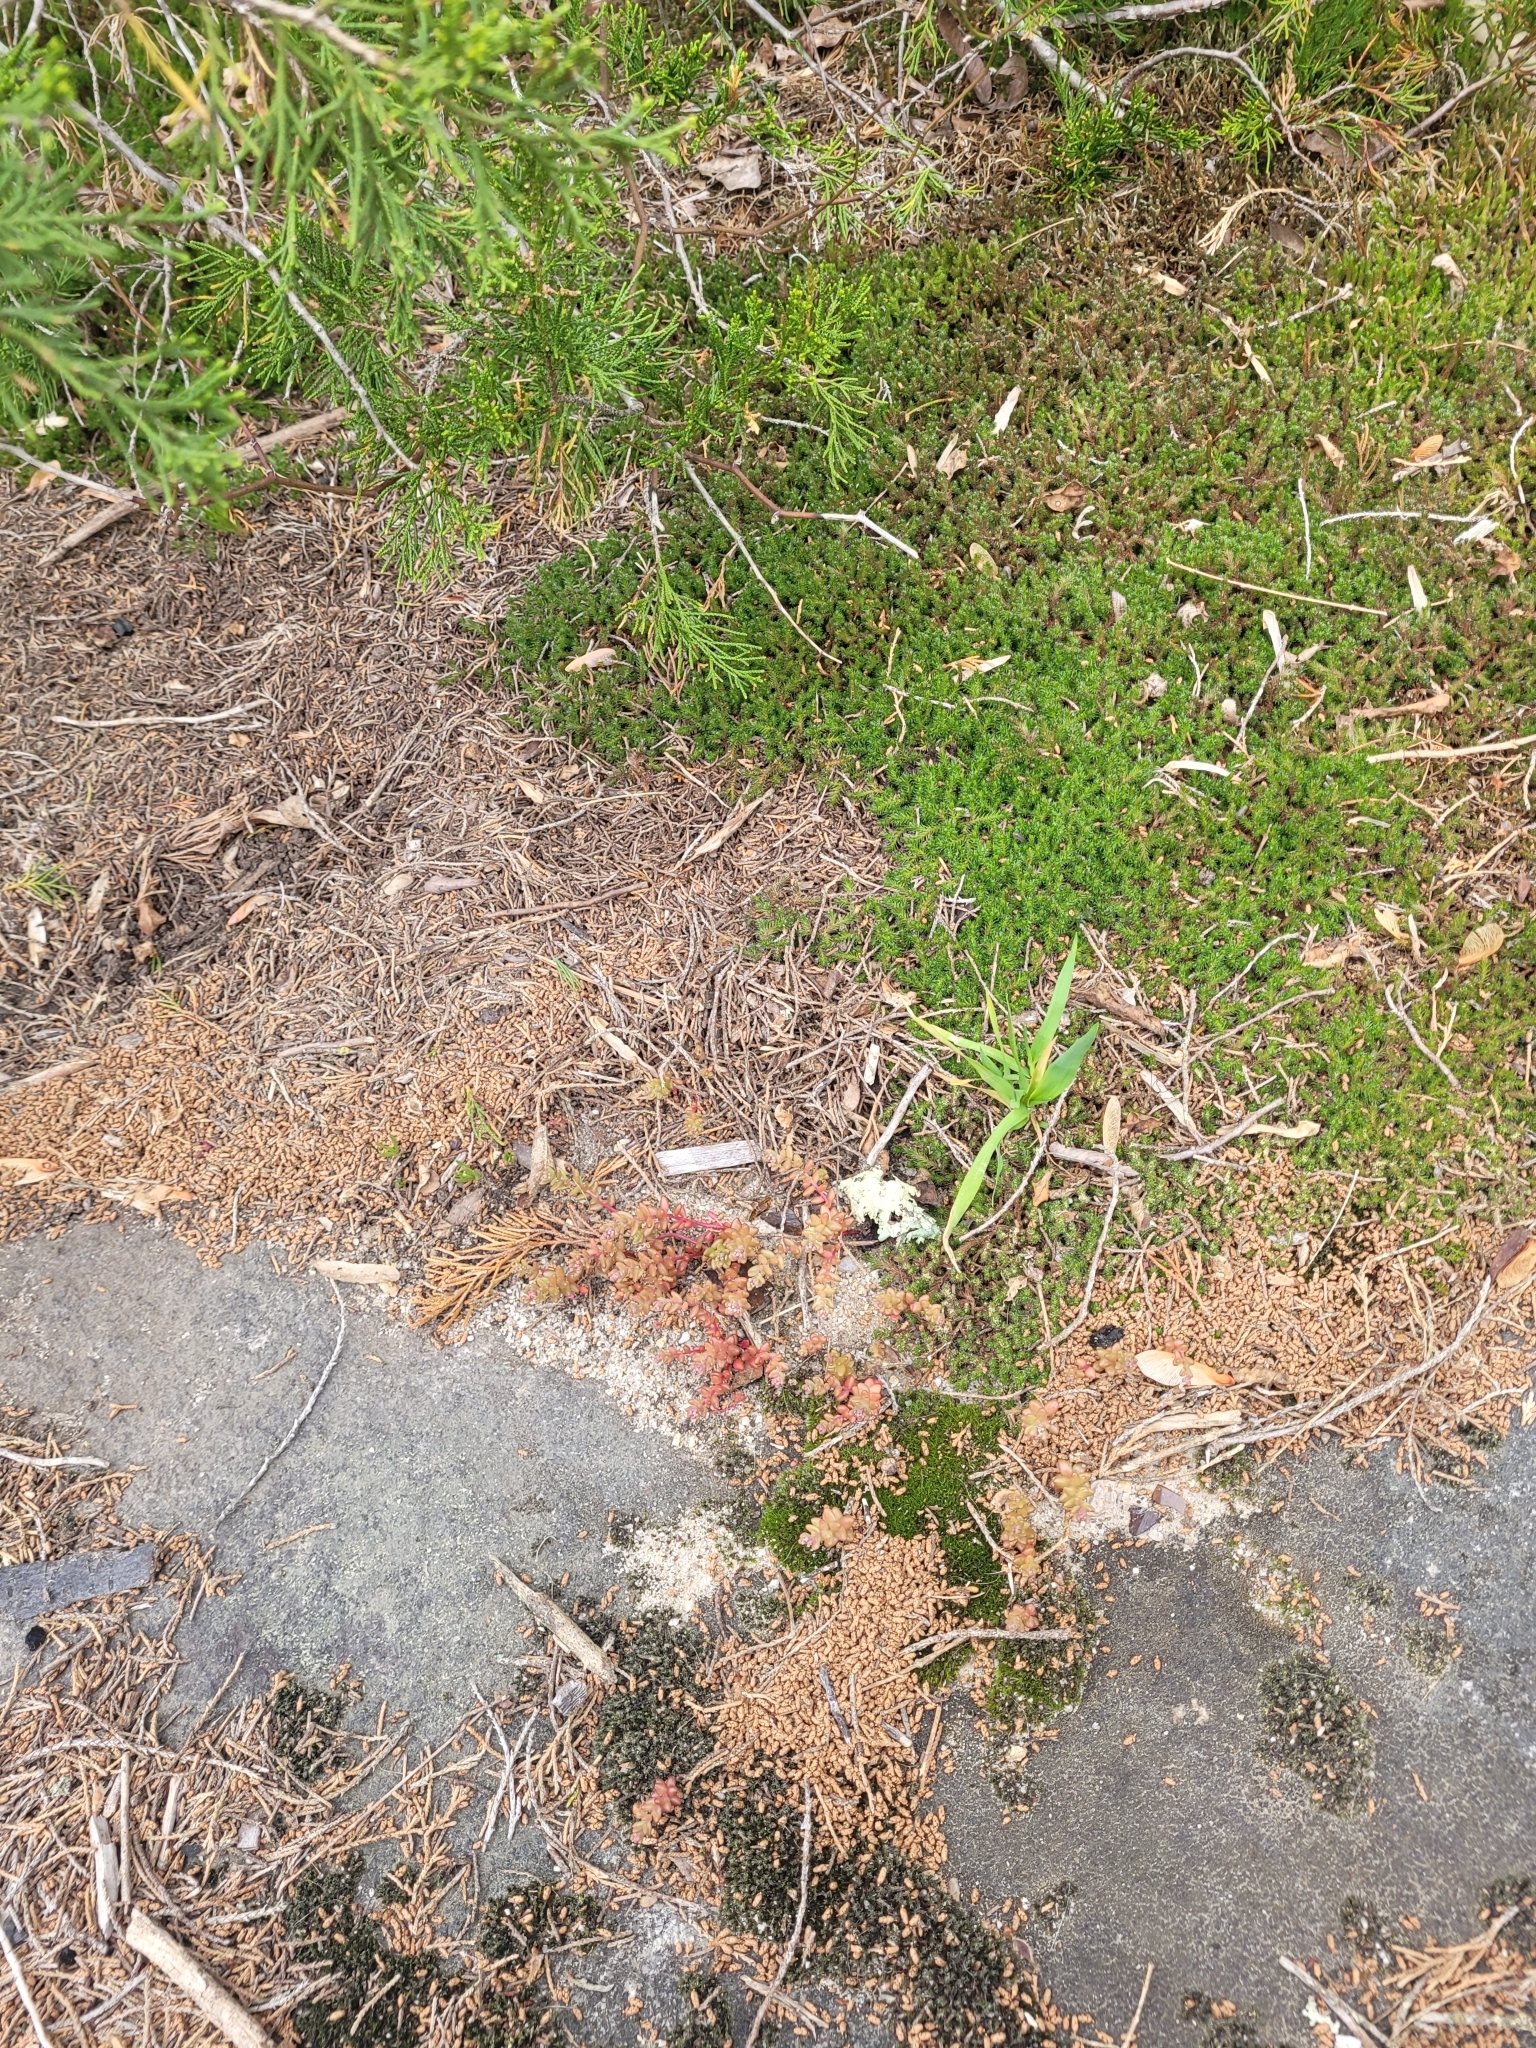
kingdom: Plantae
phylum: Tracheophyta
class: Magnoliopsida
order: Saxifragales
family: Crassulaceae
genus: Sedum
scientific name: Sedum smallii
